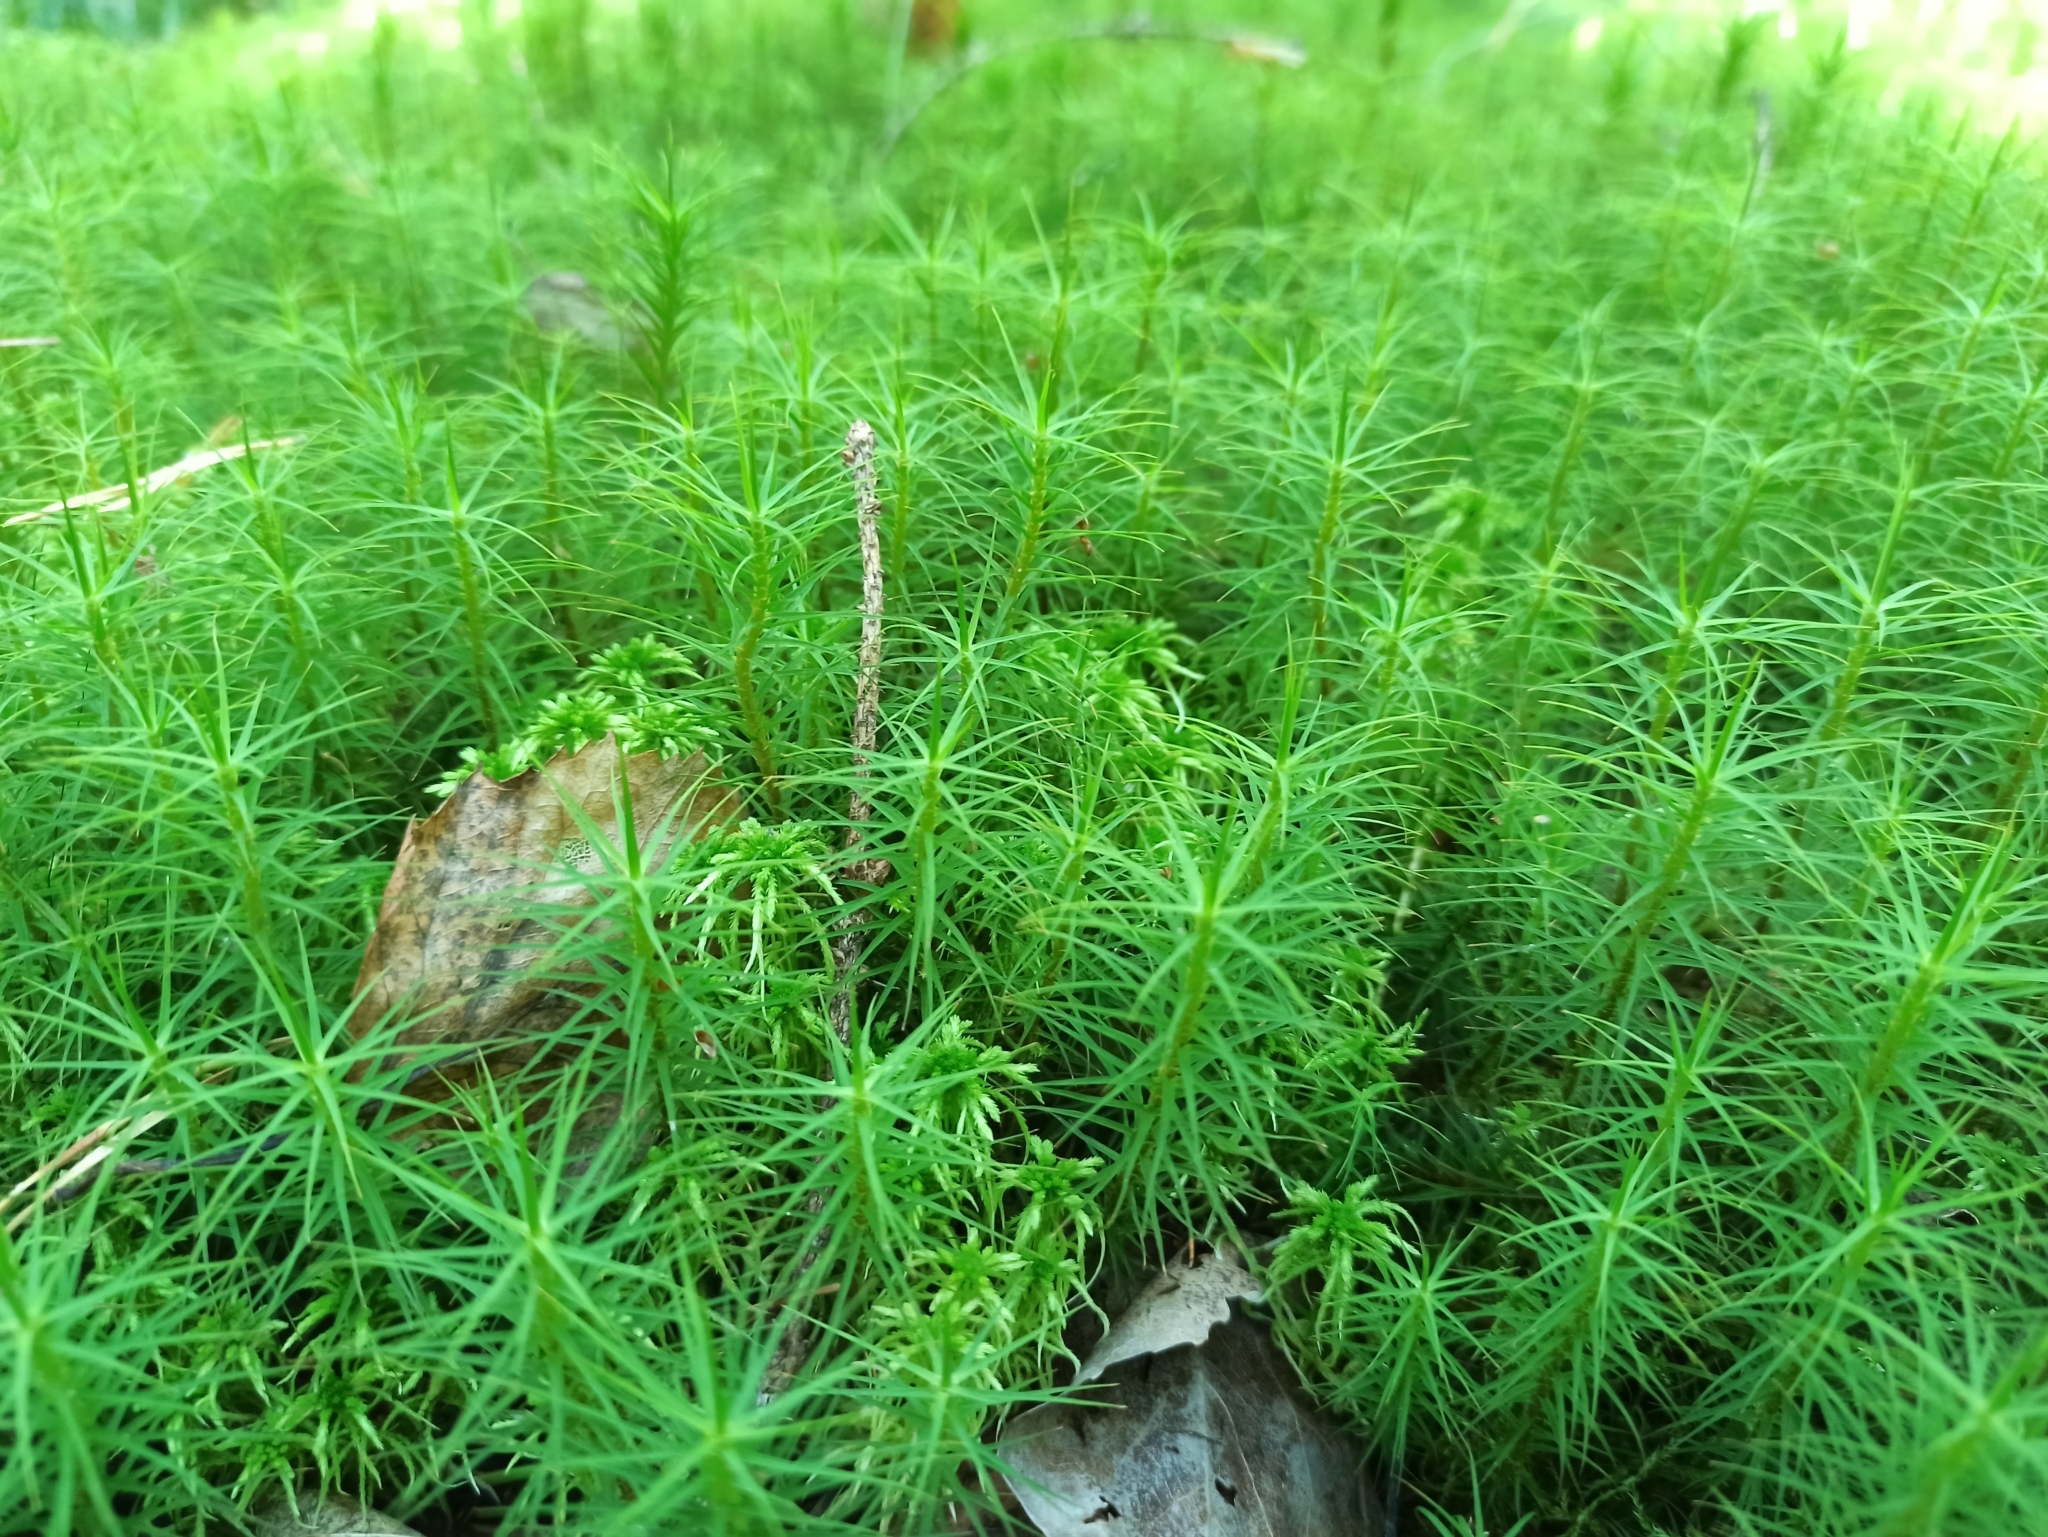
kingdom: Plantae
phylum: Bryophyta
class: Polytrichopsida
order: Polytrichales
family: Polytrichaceae
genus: Polytrichum
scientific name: Polytrichum commune
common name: Common haircap
